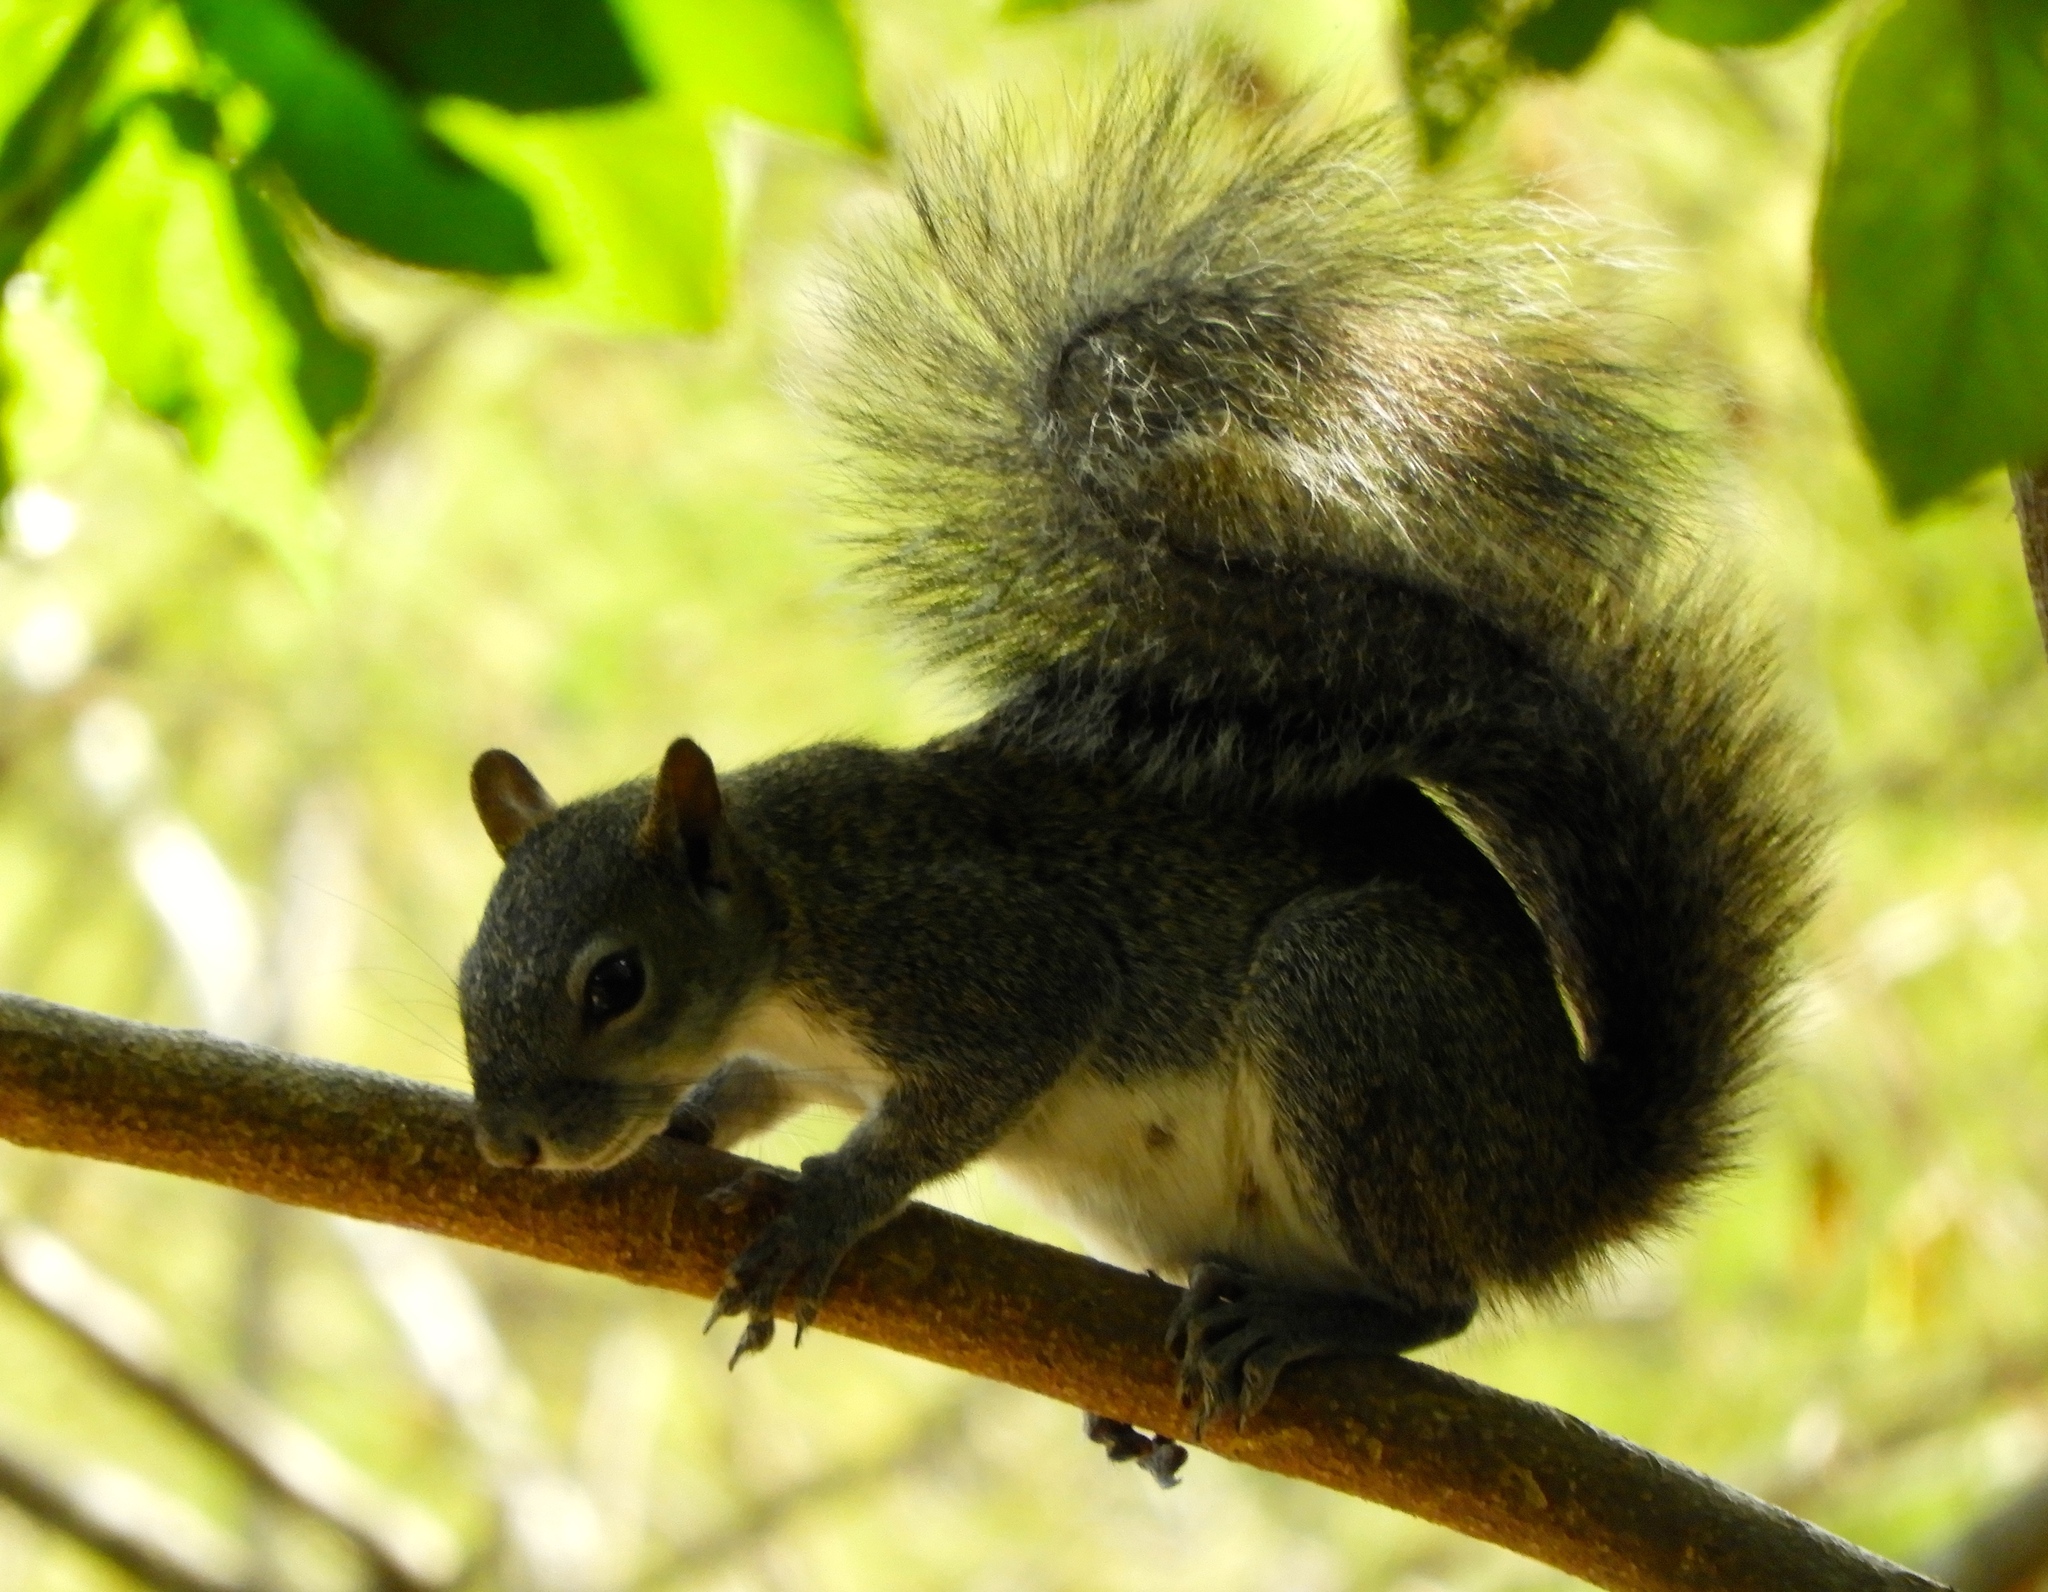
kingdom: Animalia
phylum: Chordata
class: Mammalia
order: Rodentia
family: Sciuridae
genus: Sciurus
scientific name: Sciurus colliaei
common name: Collie's squirrel
